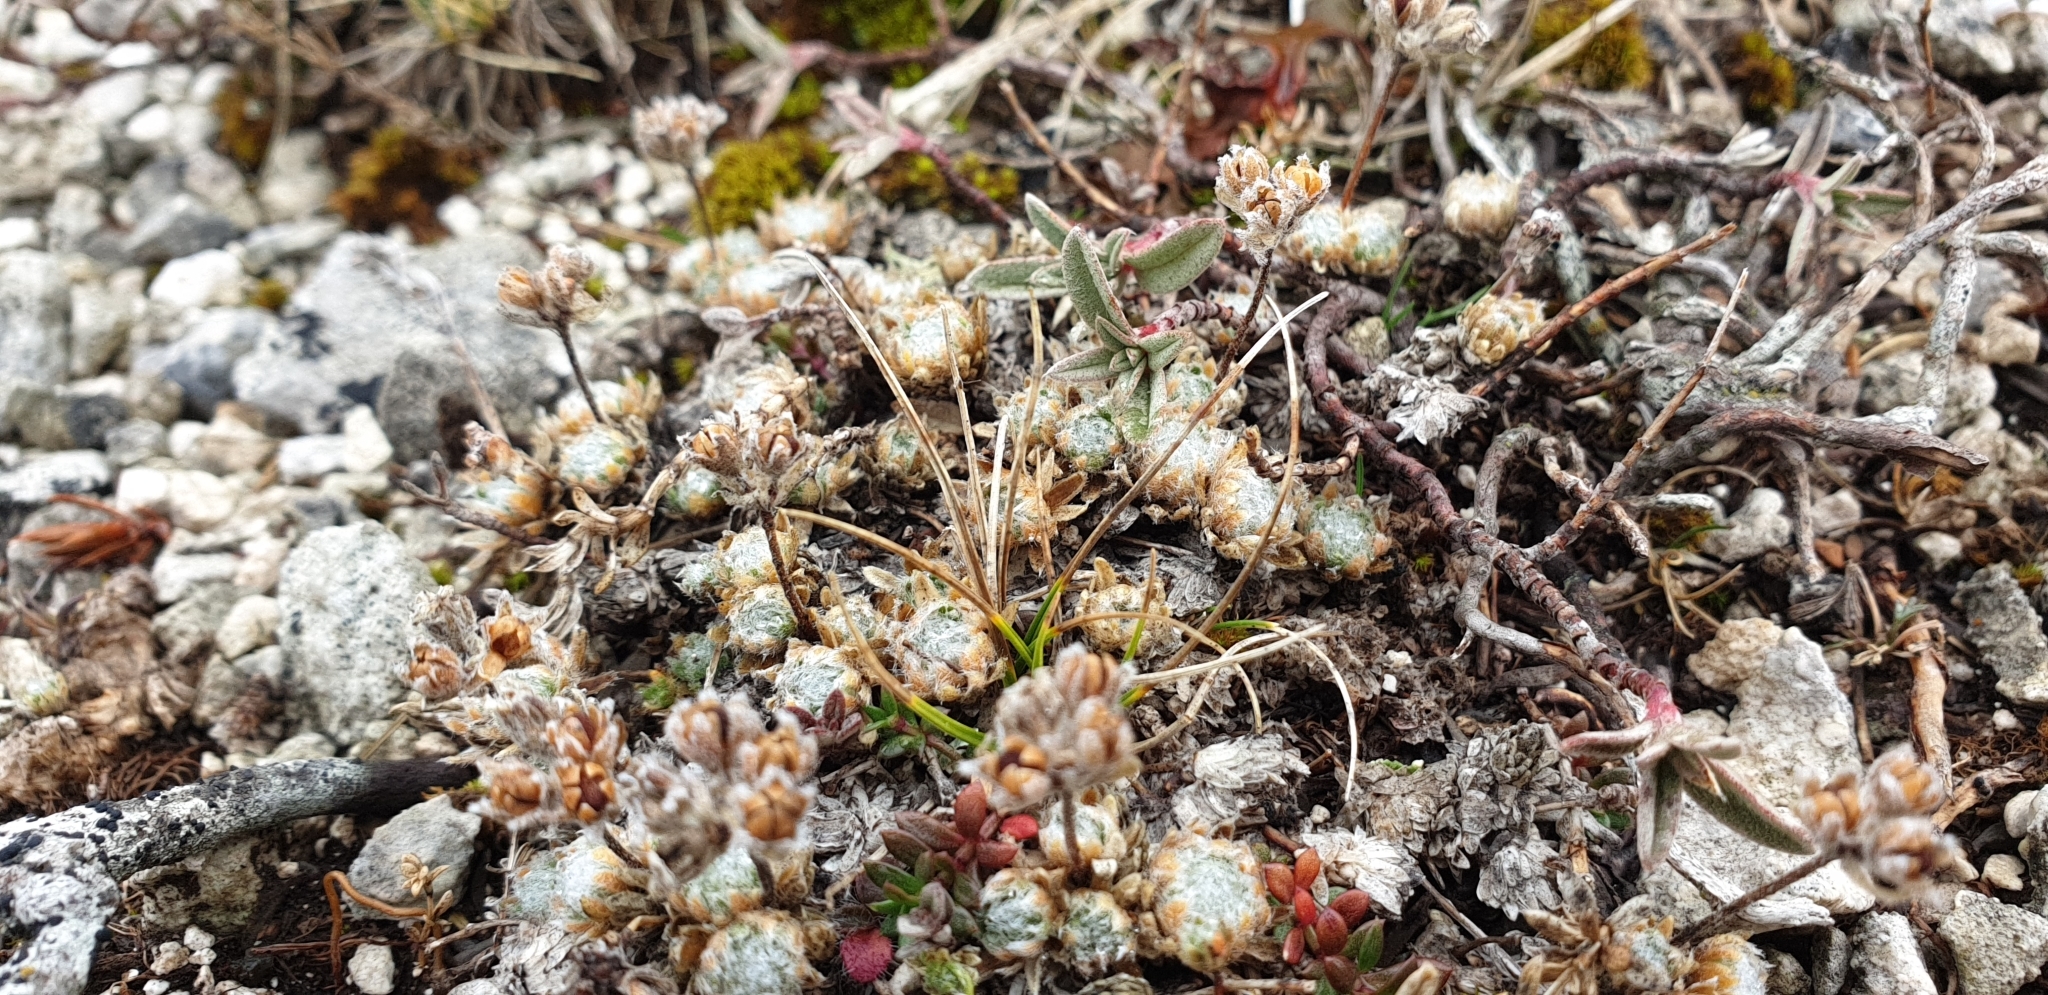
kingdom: Plantae
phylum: Tracheophyta
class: Magnoliopsida
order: Ericales
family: Primulaceae
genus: Androsace
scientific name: Androsace villosa
